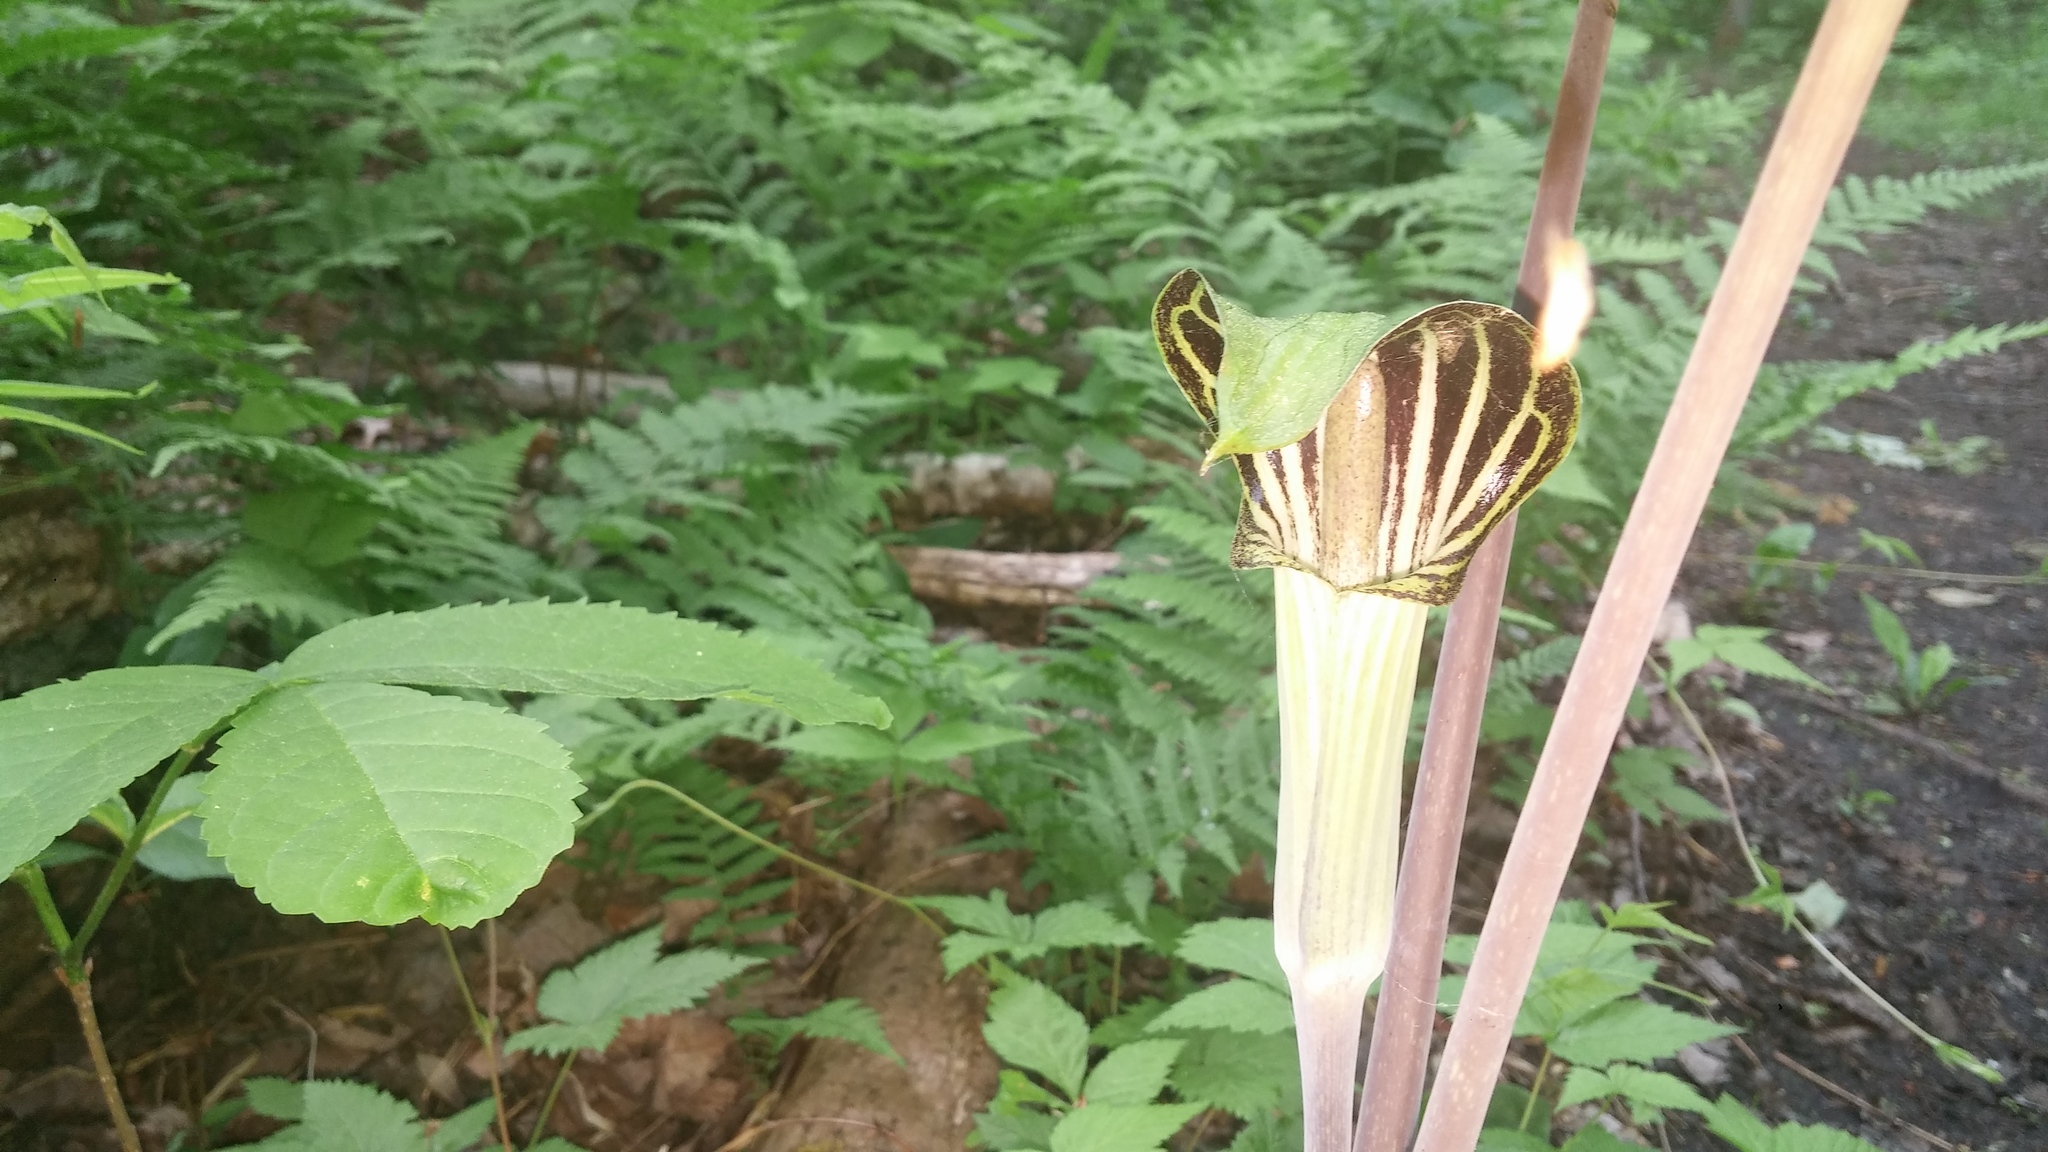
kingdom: Plantae
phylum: Tracheophyta
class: Liliopsida
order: Alismatales
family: Araceae
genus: Arisaema
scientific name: Arisaema triphyllum
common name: Jack-in-the-pulpit
